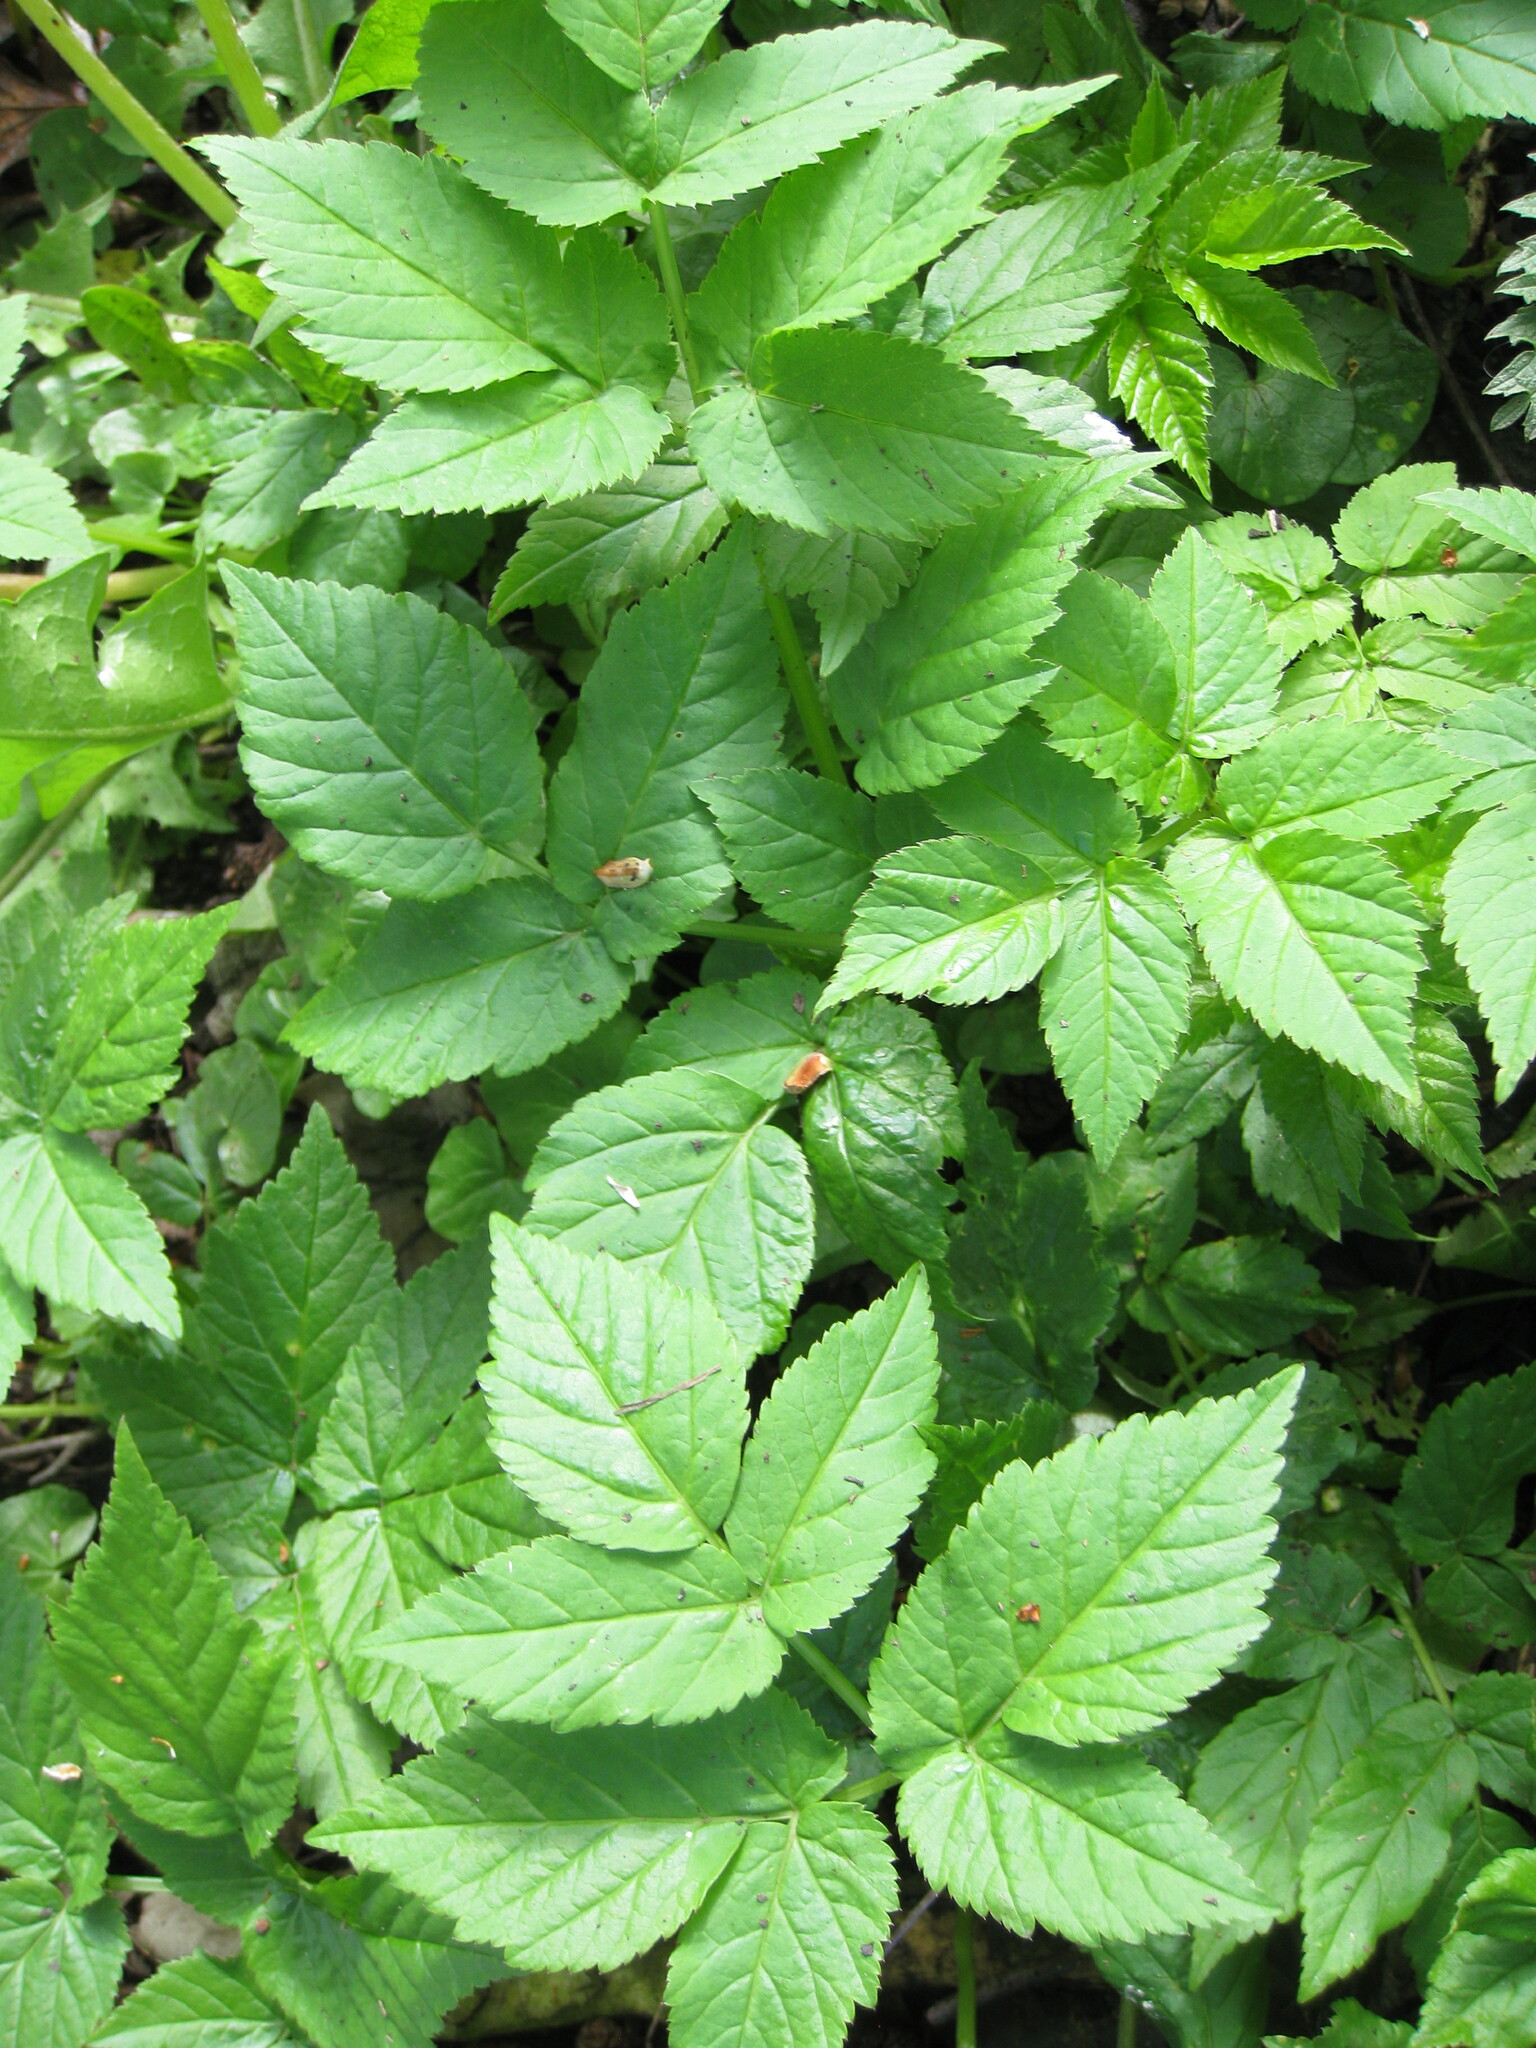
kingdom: Plantae
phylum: Tracheophyta
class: Magnoliopsida
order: Apiales
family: Apiaceae
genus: Aegopodium
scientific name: Aegopodium podagraria
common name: Ground-elder
